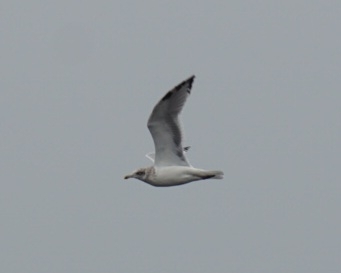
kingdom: Animalia
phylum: Chordata
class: Aves
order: Charadriiformes
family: Laridae
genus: Larus
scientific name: Larus argentatus
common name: Herring gull
